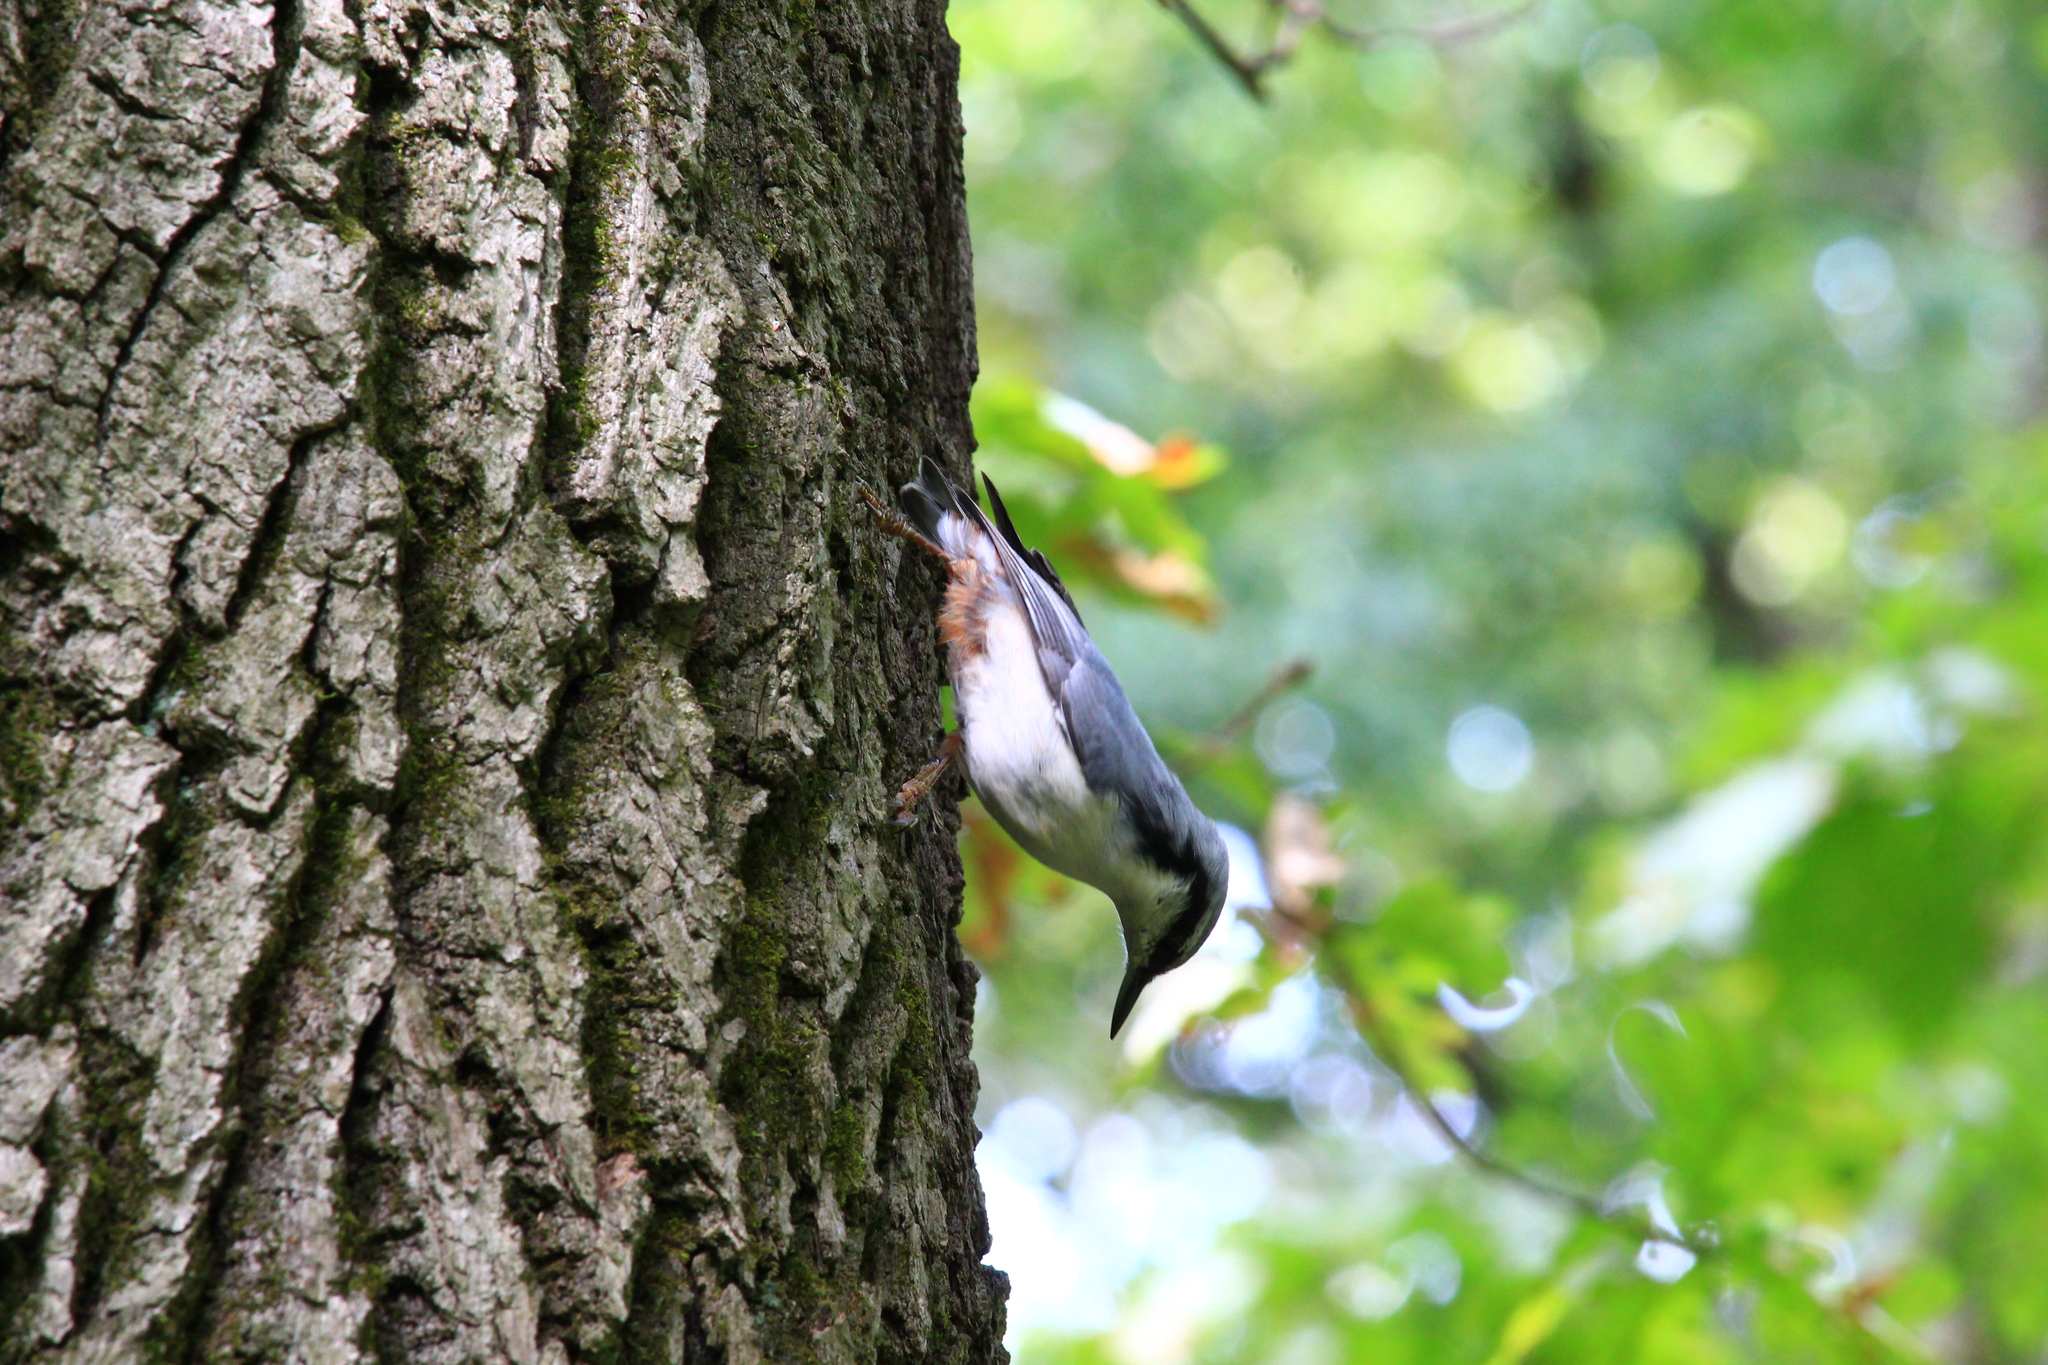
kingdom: Animalia
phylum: Chordata
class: Aves
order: Passeriformes
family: Sittidae
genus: Sitta
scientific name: Sitta europaea
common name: Eurasian nuthatch
